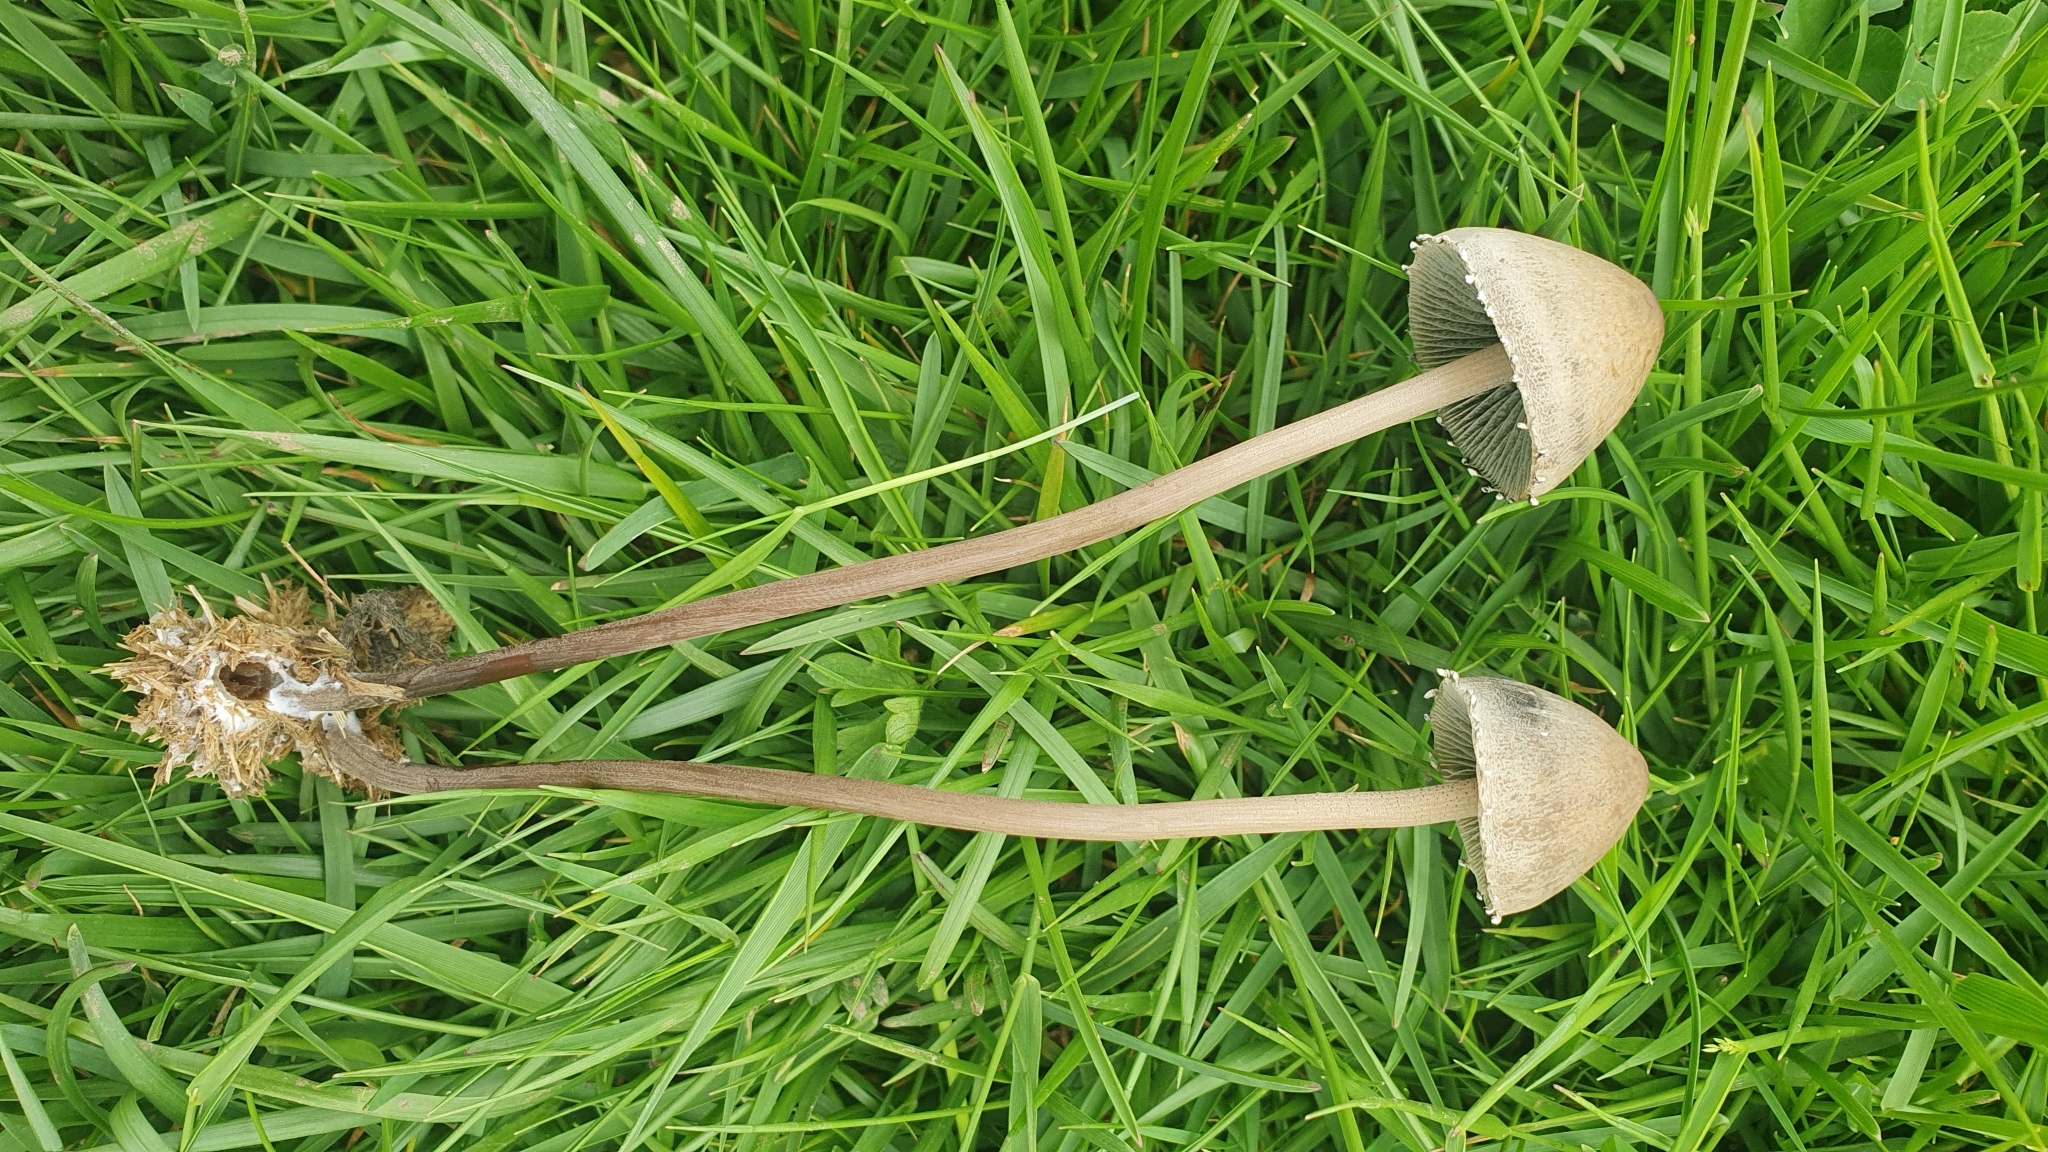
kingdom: Fungi
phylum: Basidiomycota
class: Agaricomycetes
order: Agaricales
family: Bolbitiaceae
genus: Panaeolus
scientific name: Panaeolus papilionaceus
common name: Petticoat mottlegill
